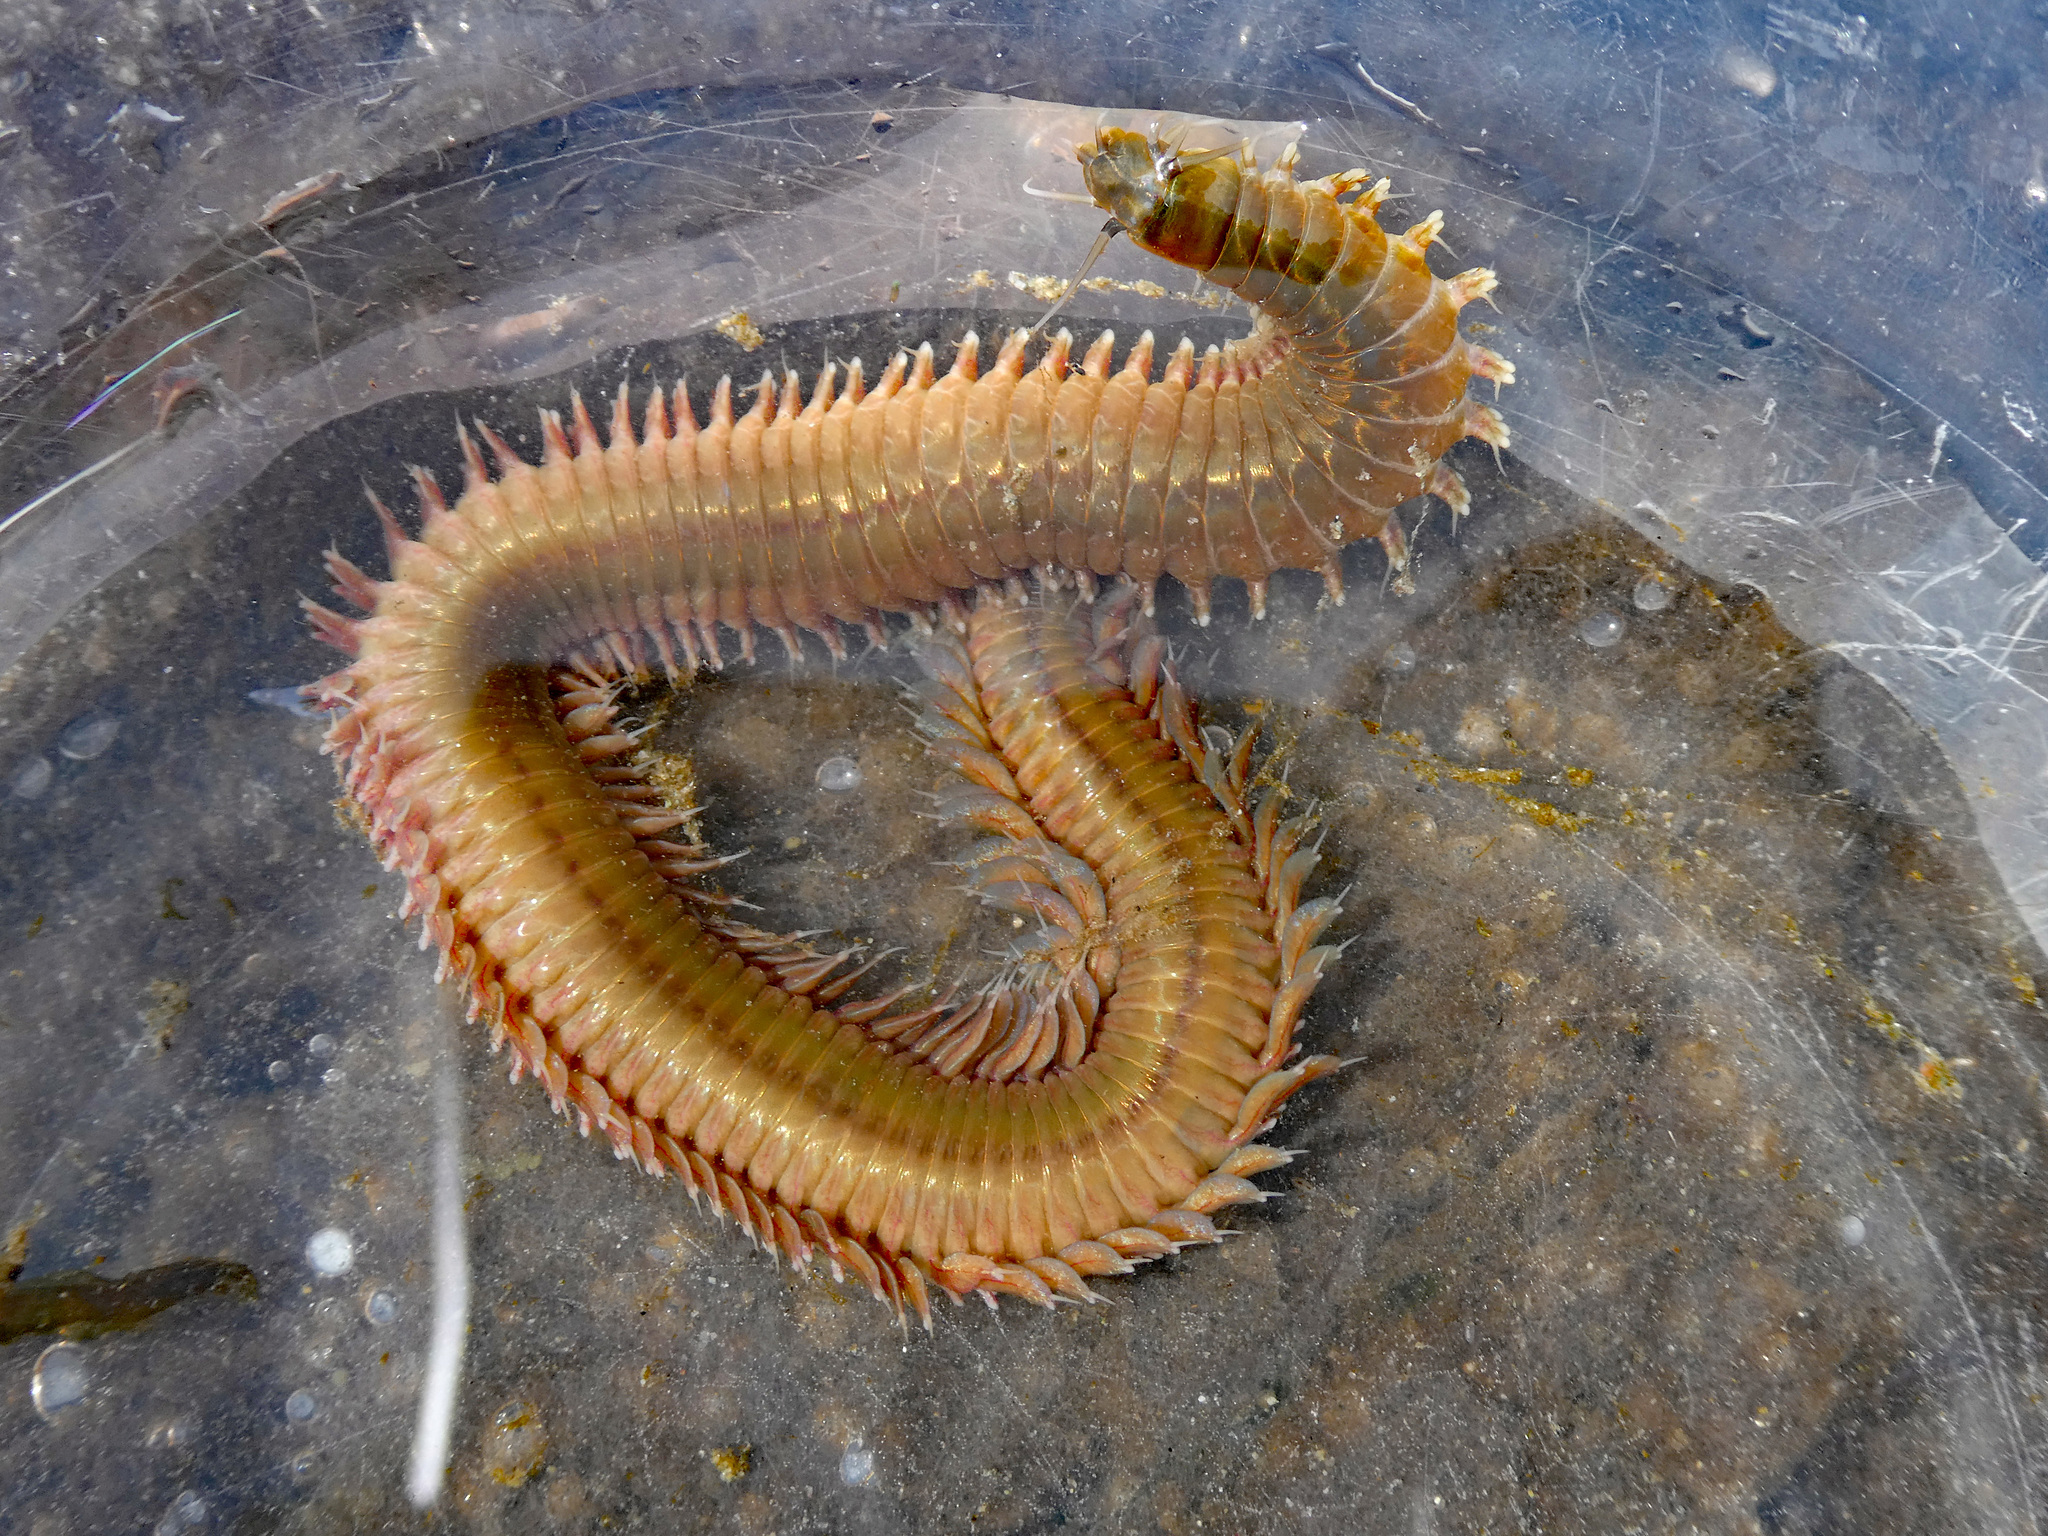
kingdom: Animalia
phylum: Annelida
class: Polychaeta
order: Phyllodocida
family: Nereididae
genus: Nereis
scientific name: Nereis vexillosa
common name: Mussel worm
